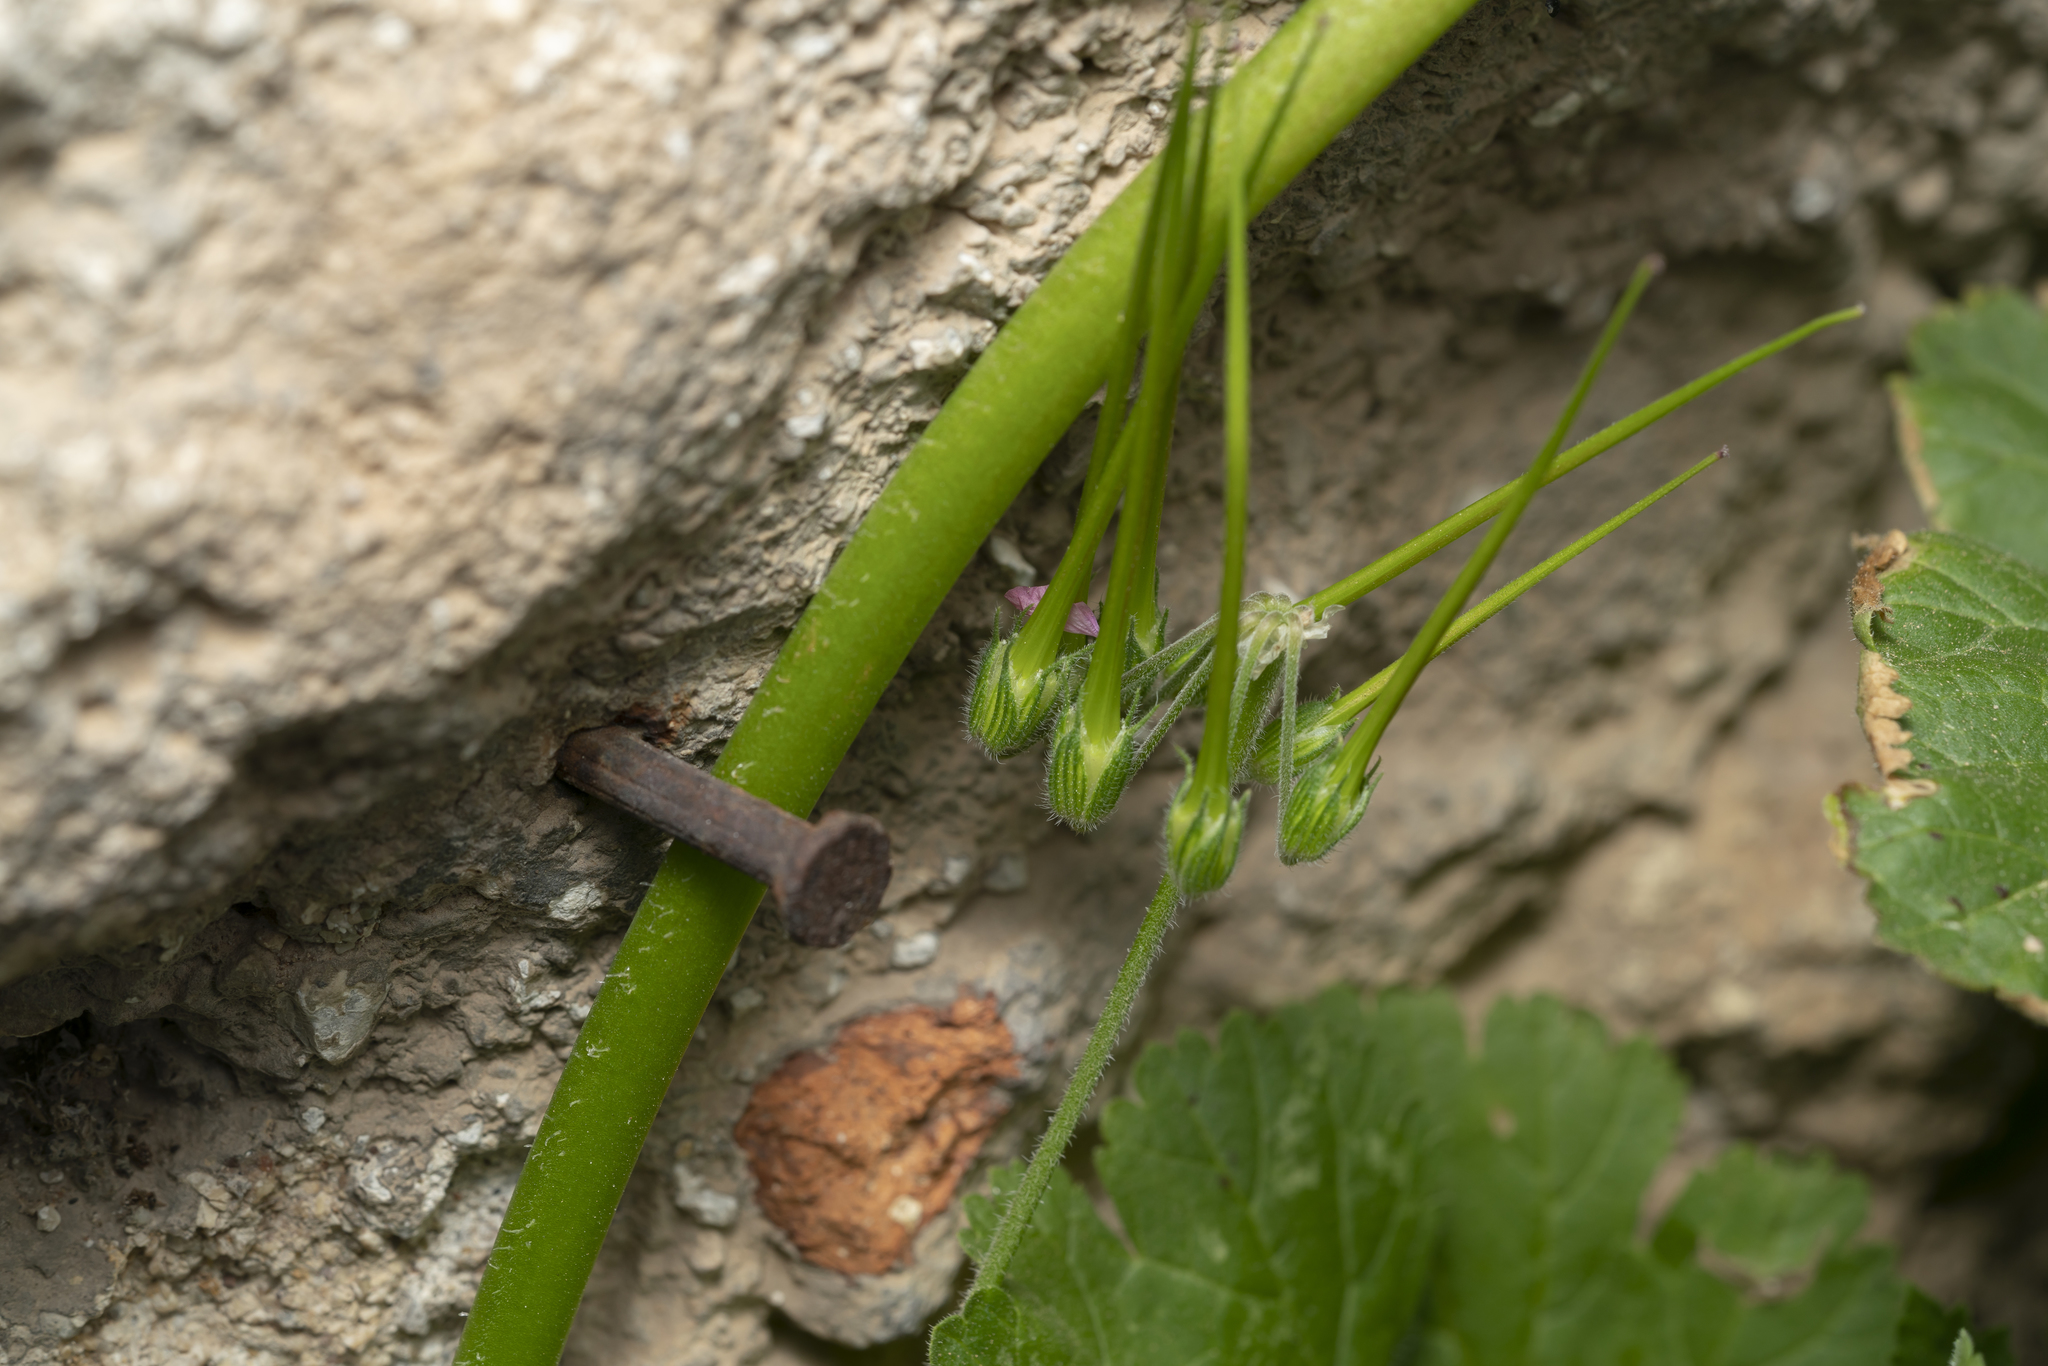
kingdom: Plantae
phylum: Tracheophyta
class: Magnoliopsida
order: Geraniales
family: Geraniaceae
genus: Erodium
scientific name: Erodium chium
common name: Three-lobed stork's-bill
